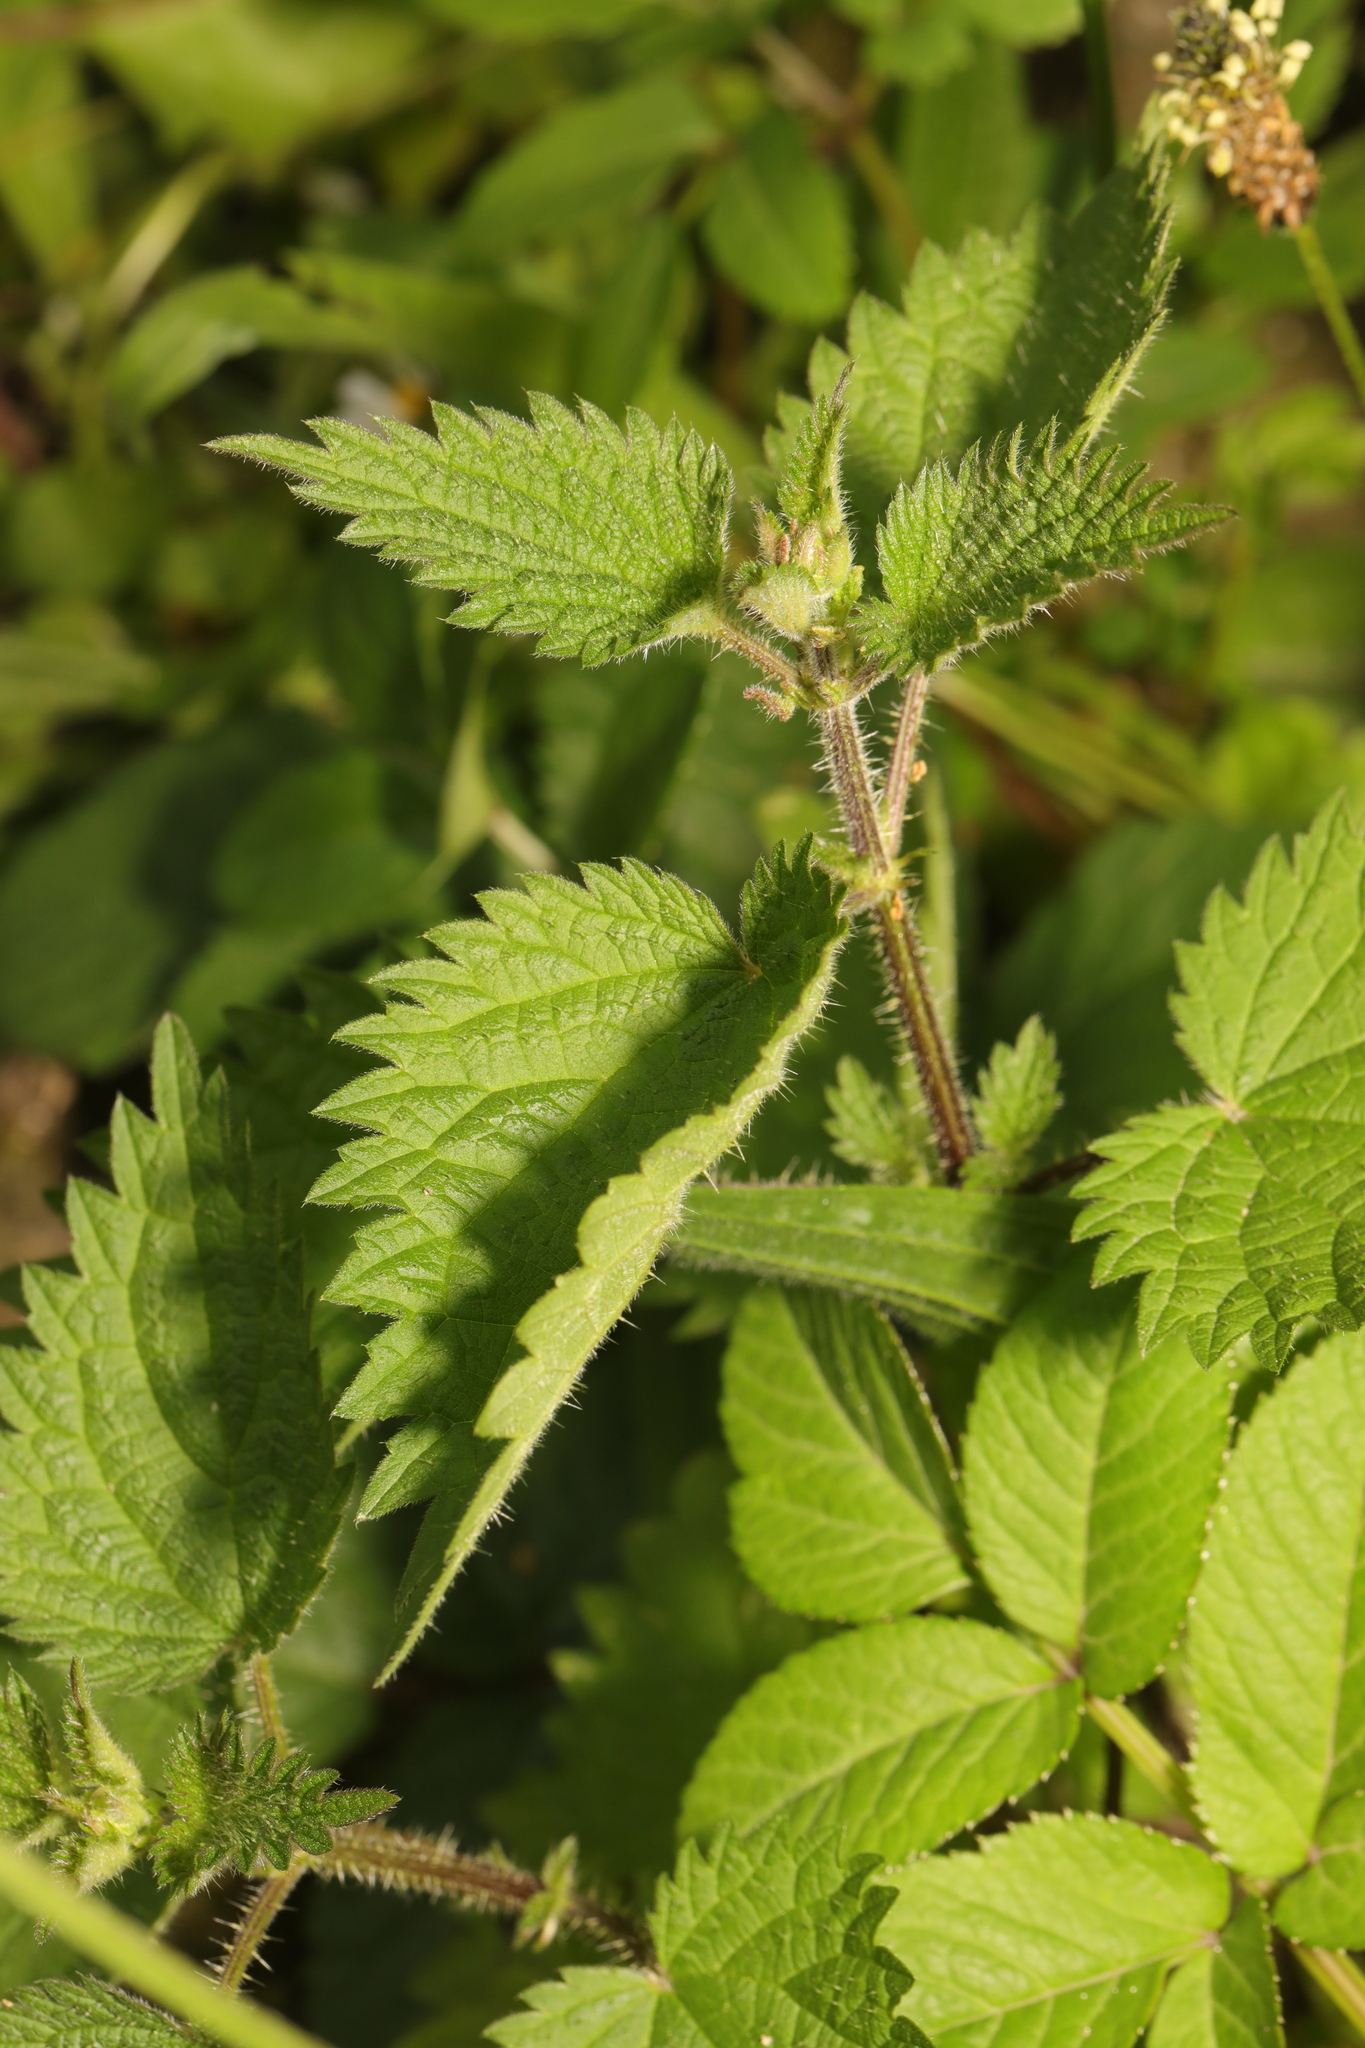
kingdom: Plantae
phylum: Tracheophyta
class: Magnoliopsida
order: Rosales
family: Urticaceae
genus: Urtica
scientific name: Urtica dioica
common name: Common nettle
